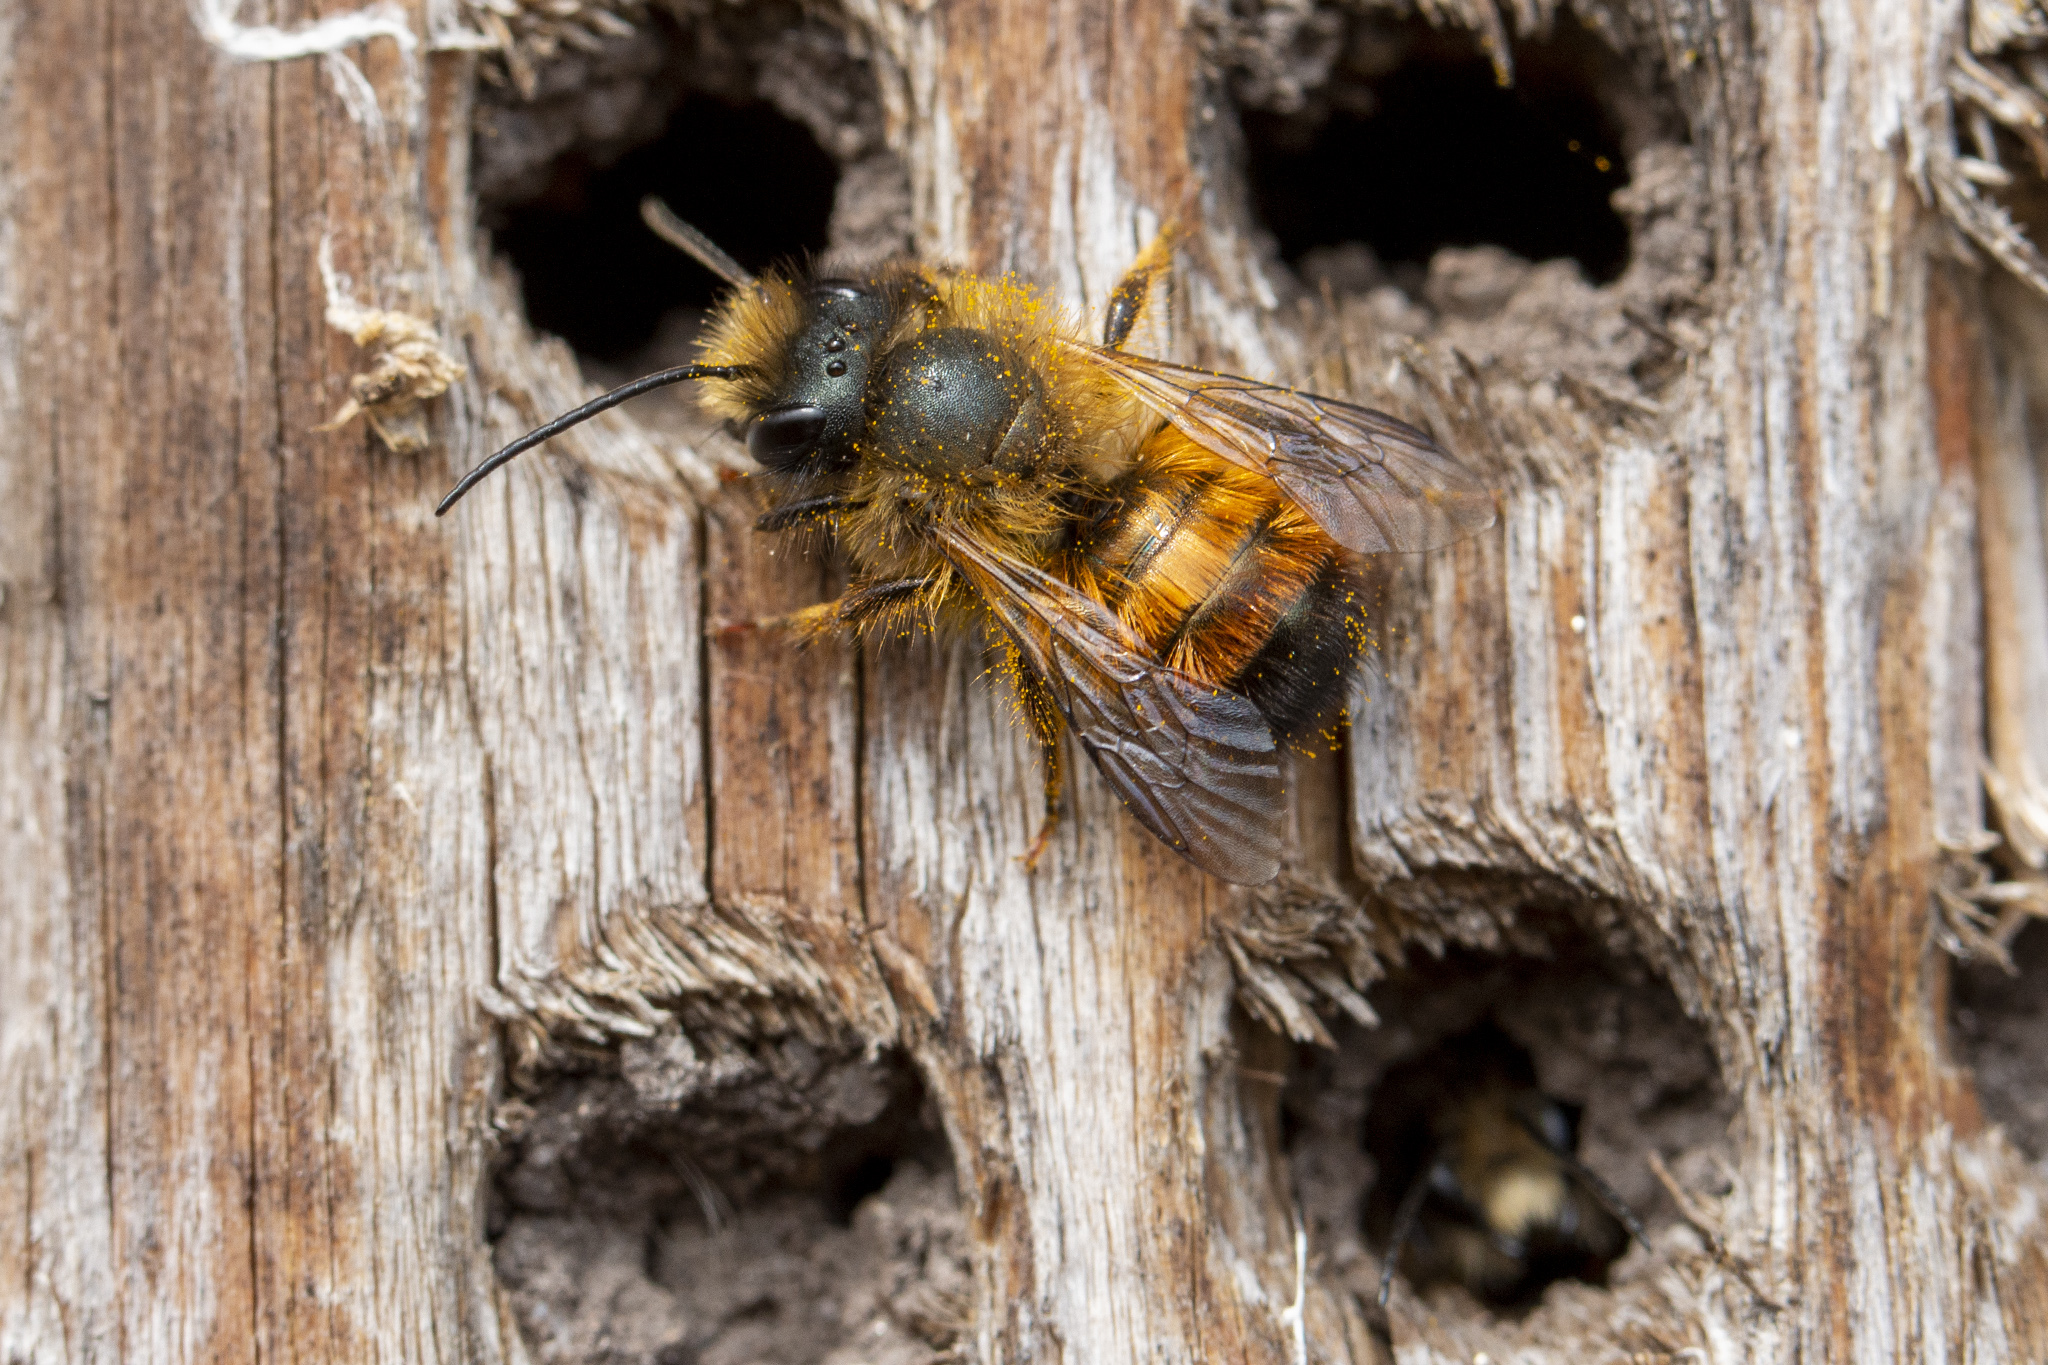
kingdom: Animalia
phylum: Arthropoda
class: Insecta
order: Hymenoptera
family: Megachilidae
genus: Osmia
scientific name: Osmia bicornis
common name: Red mason bee
